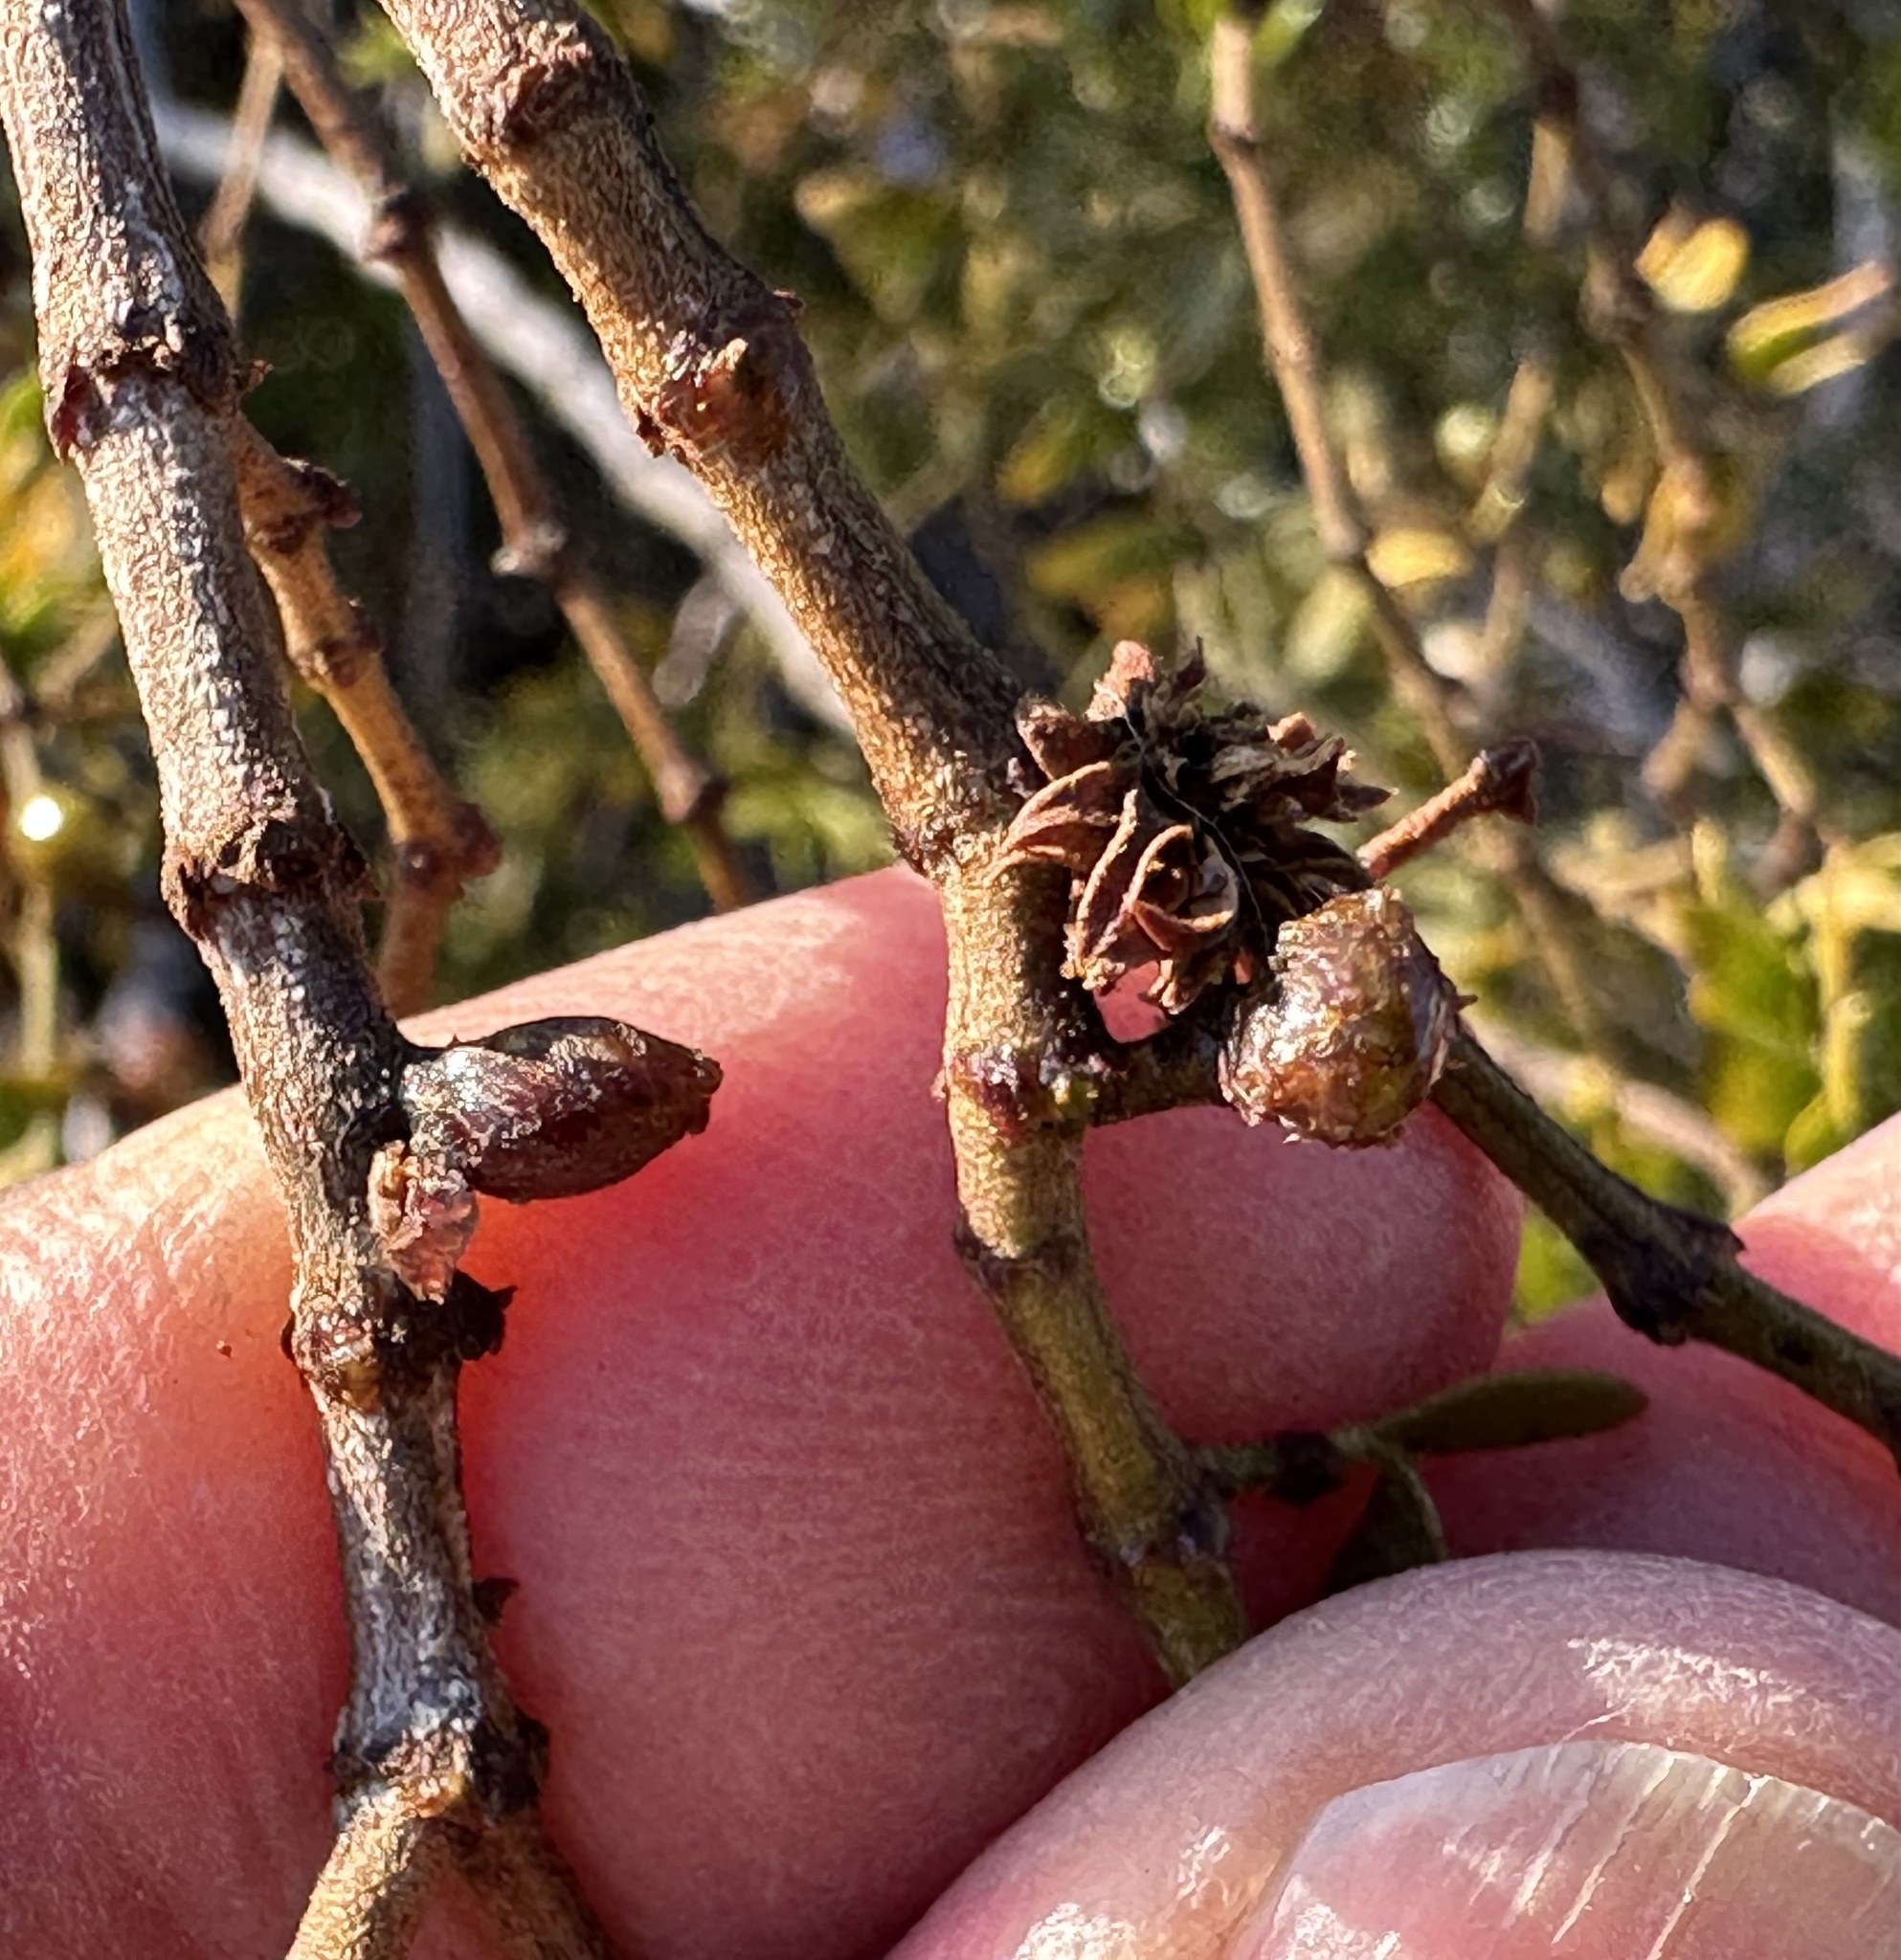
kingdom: Animalia
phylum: Arthropoda
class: Insecta
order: Diptera
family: Cecidomyiidae
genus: Asphondylia
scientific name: Asphondylia resinosa
